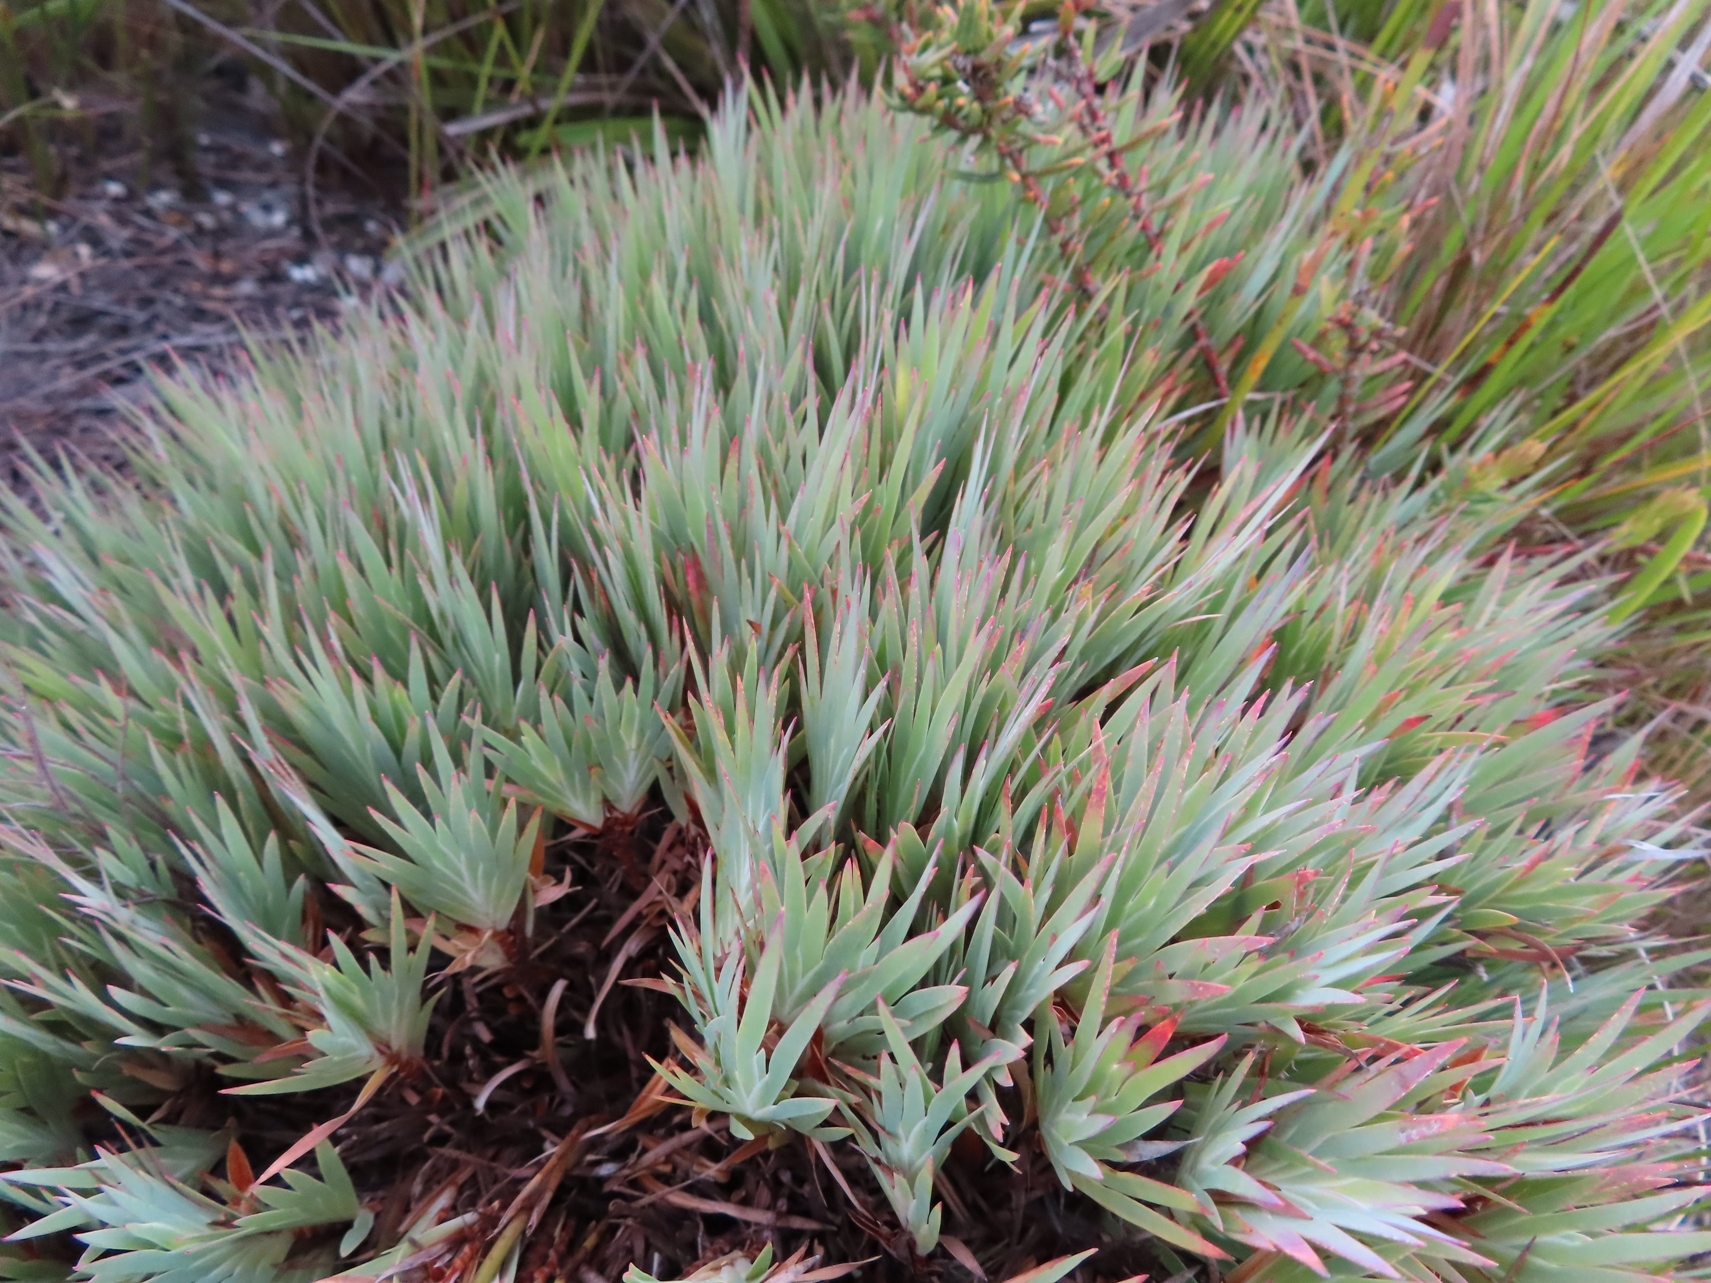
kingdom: Plantae
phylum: Tracheophyta
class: Liliopsida
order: Asparagales
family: Iridaceae
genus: Nivenia
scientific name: Nivenia fruticosa
